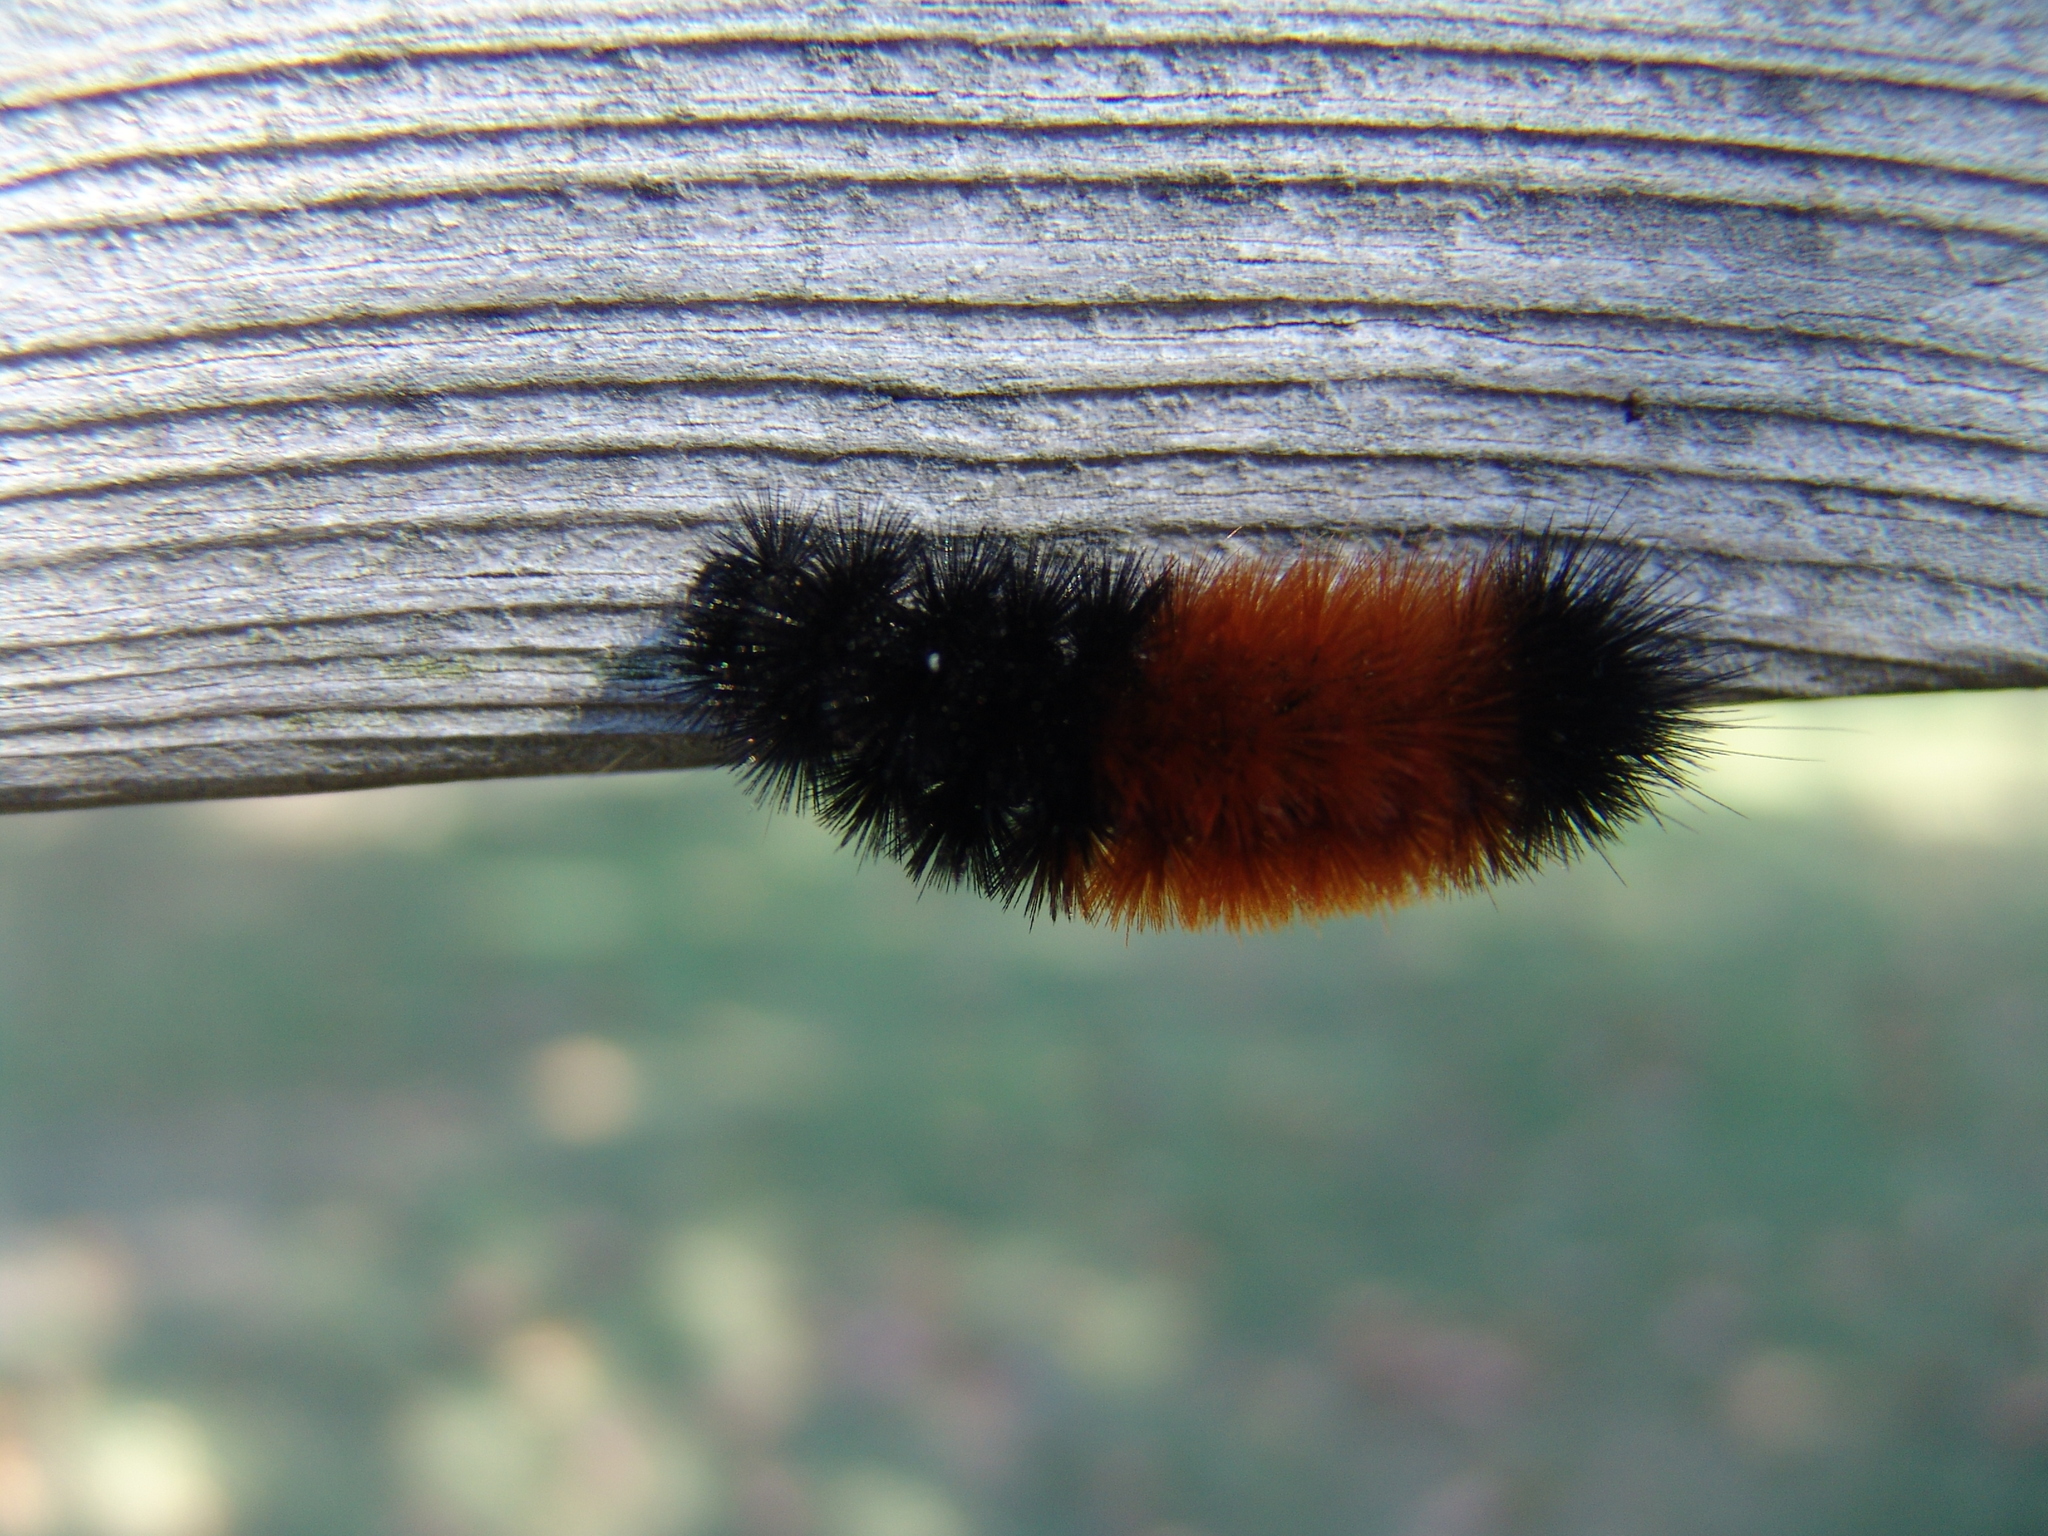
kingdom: Animalia
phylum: Arthropoda
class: Insecta
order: Lepidoptera
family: Erebidae
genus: Pyrrharctia
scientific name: Pyrrharctia isabella
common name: Isabella tiger moth
